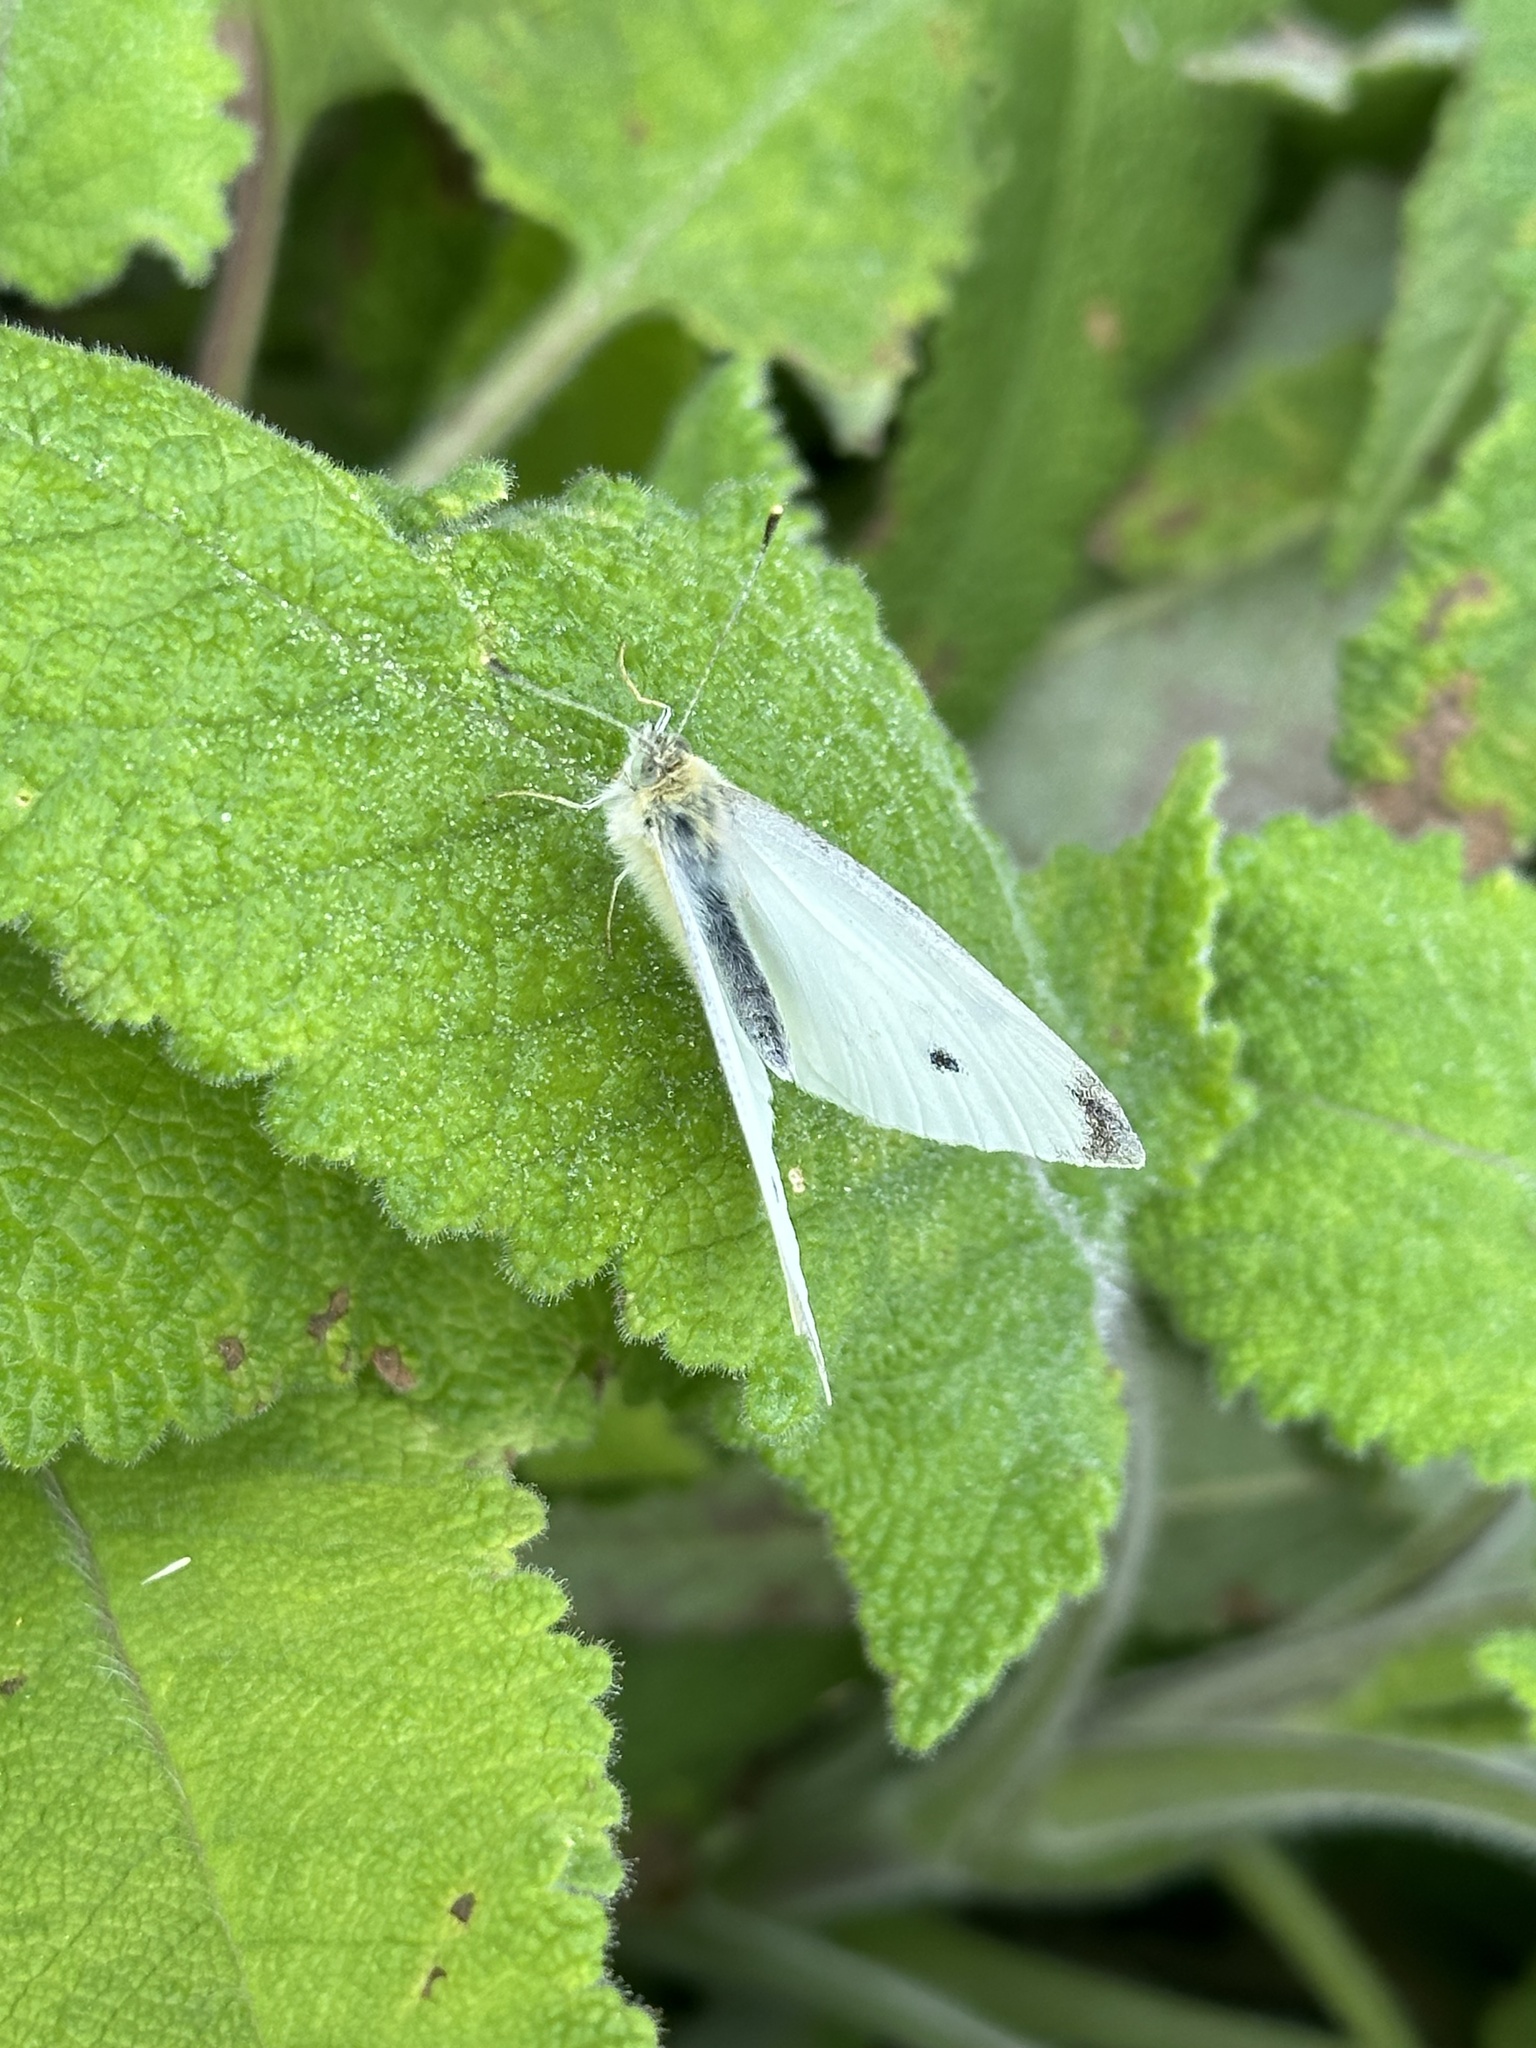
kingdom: Animalia
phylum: Arthropoda
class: Insecta
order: Lepidoptera
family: Pieridae
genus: Pieris
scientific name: Pieris rapae
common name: Small white
